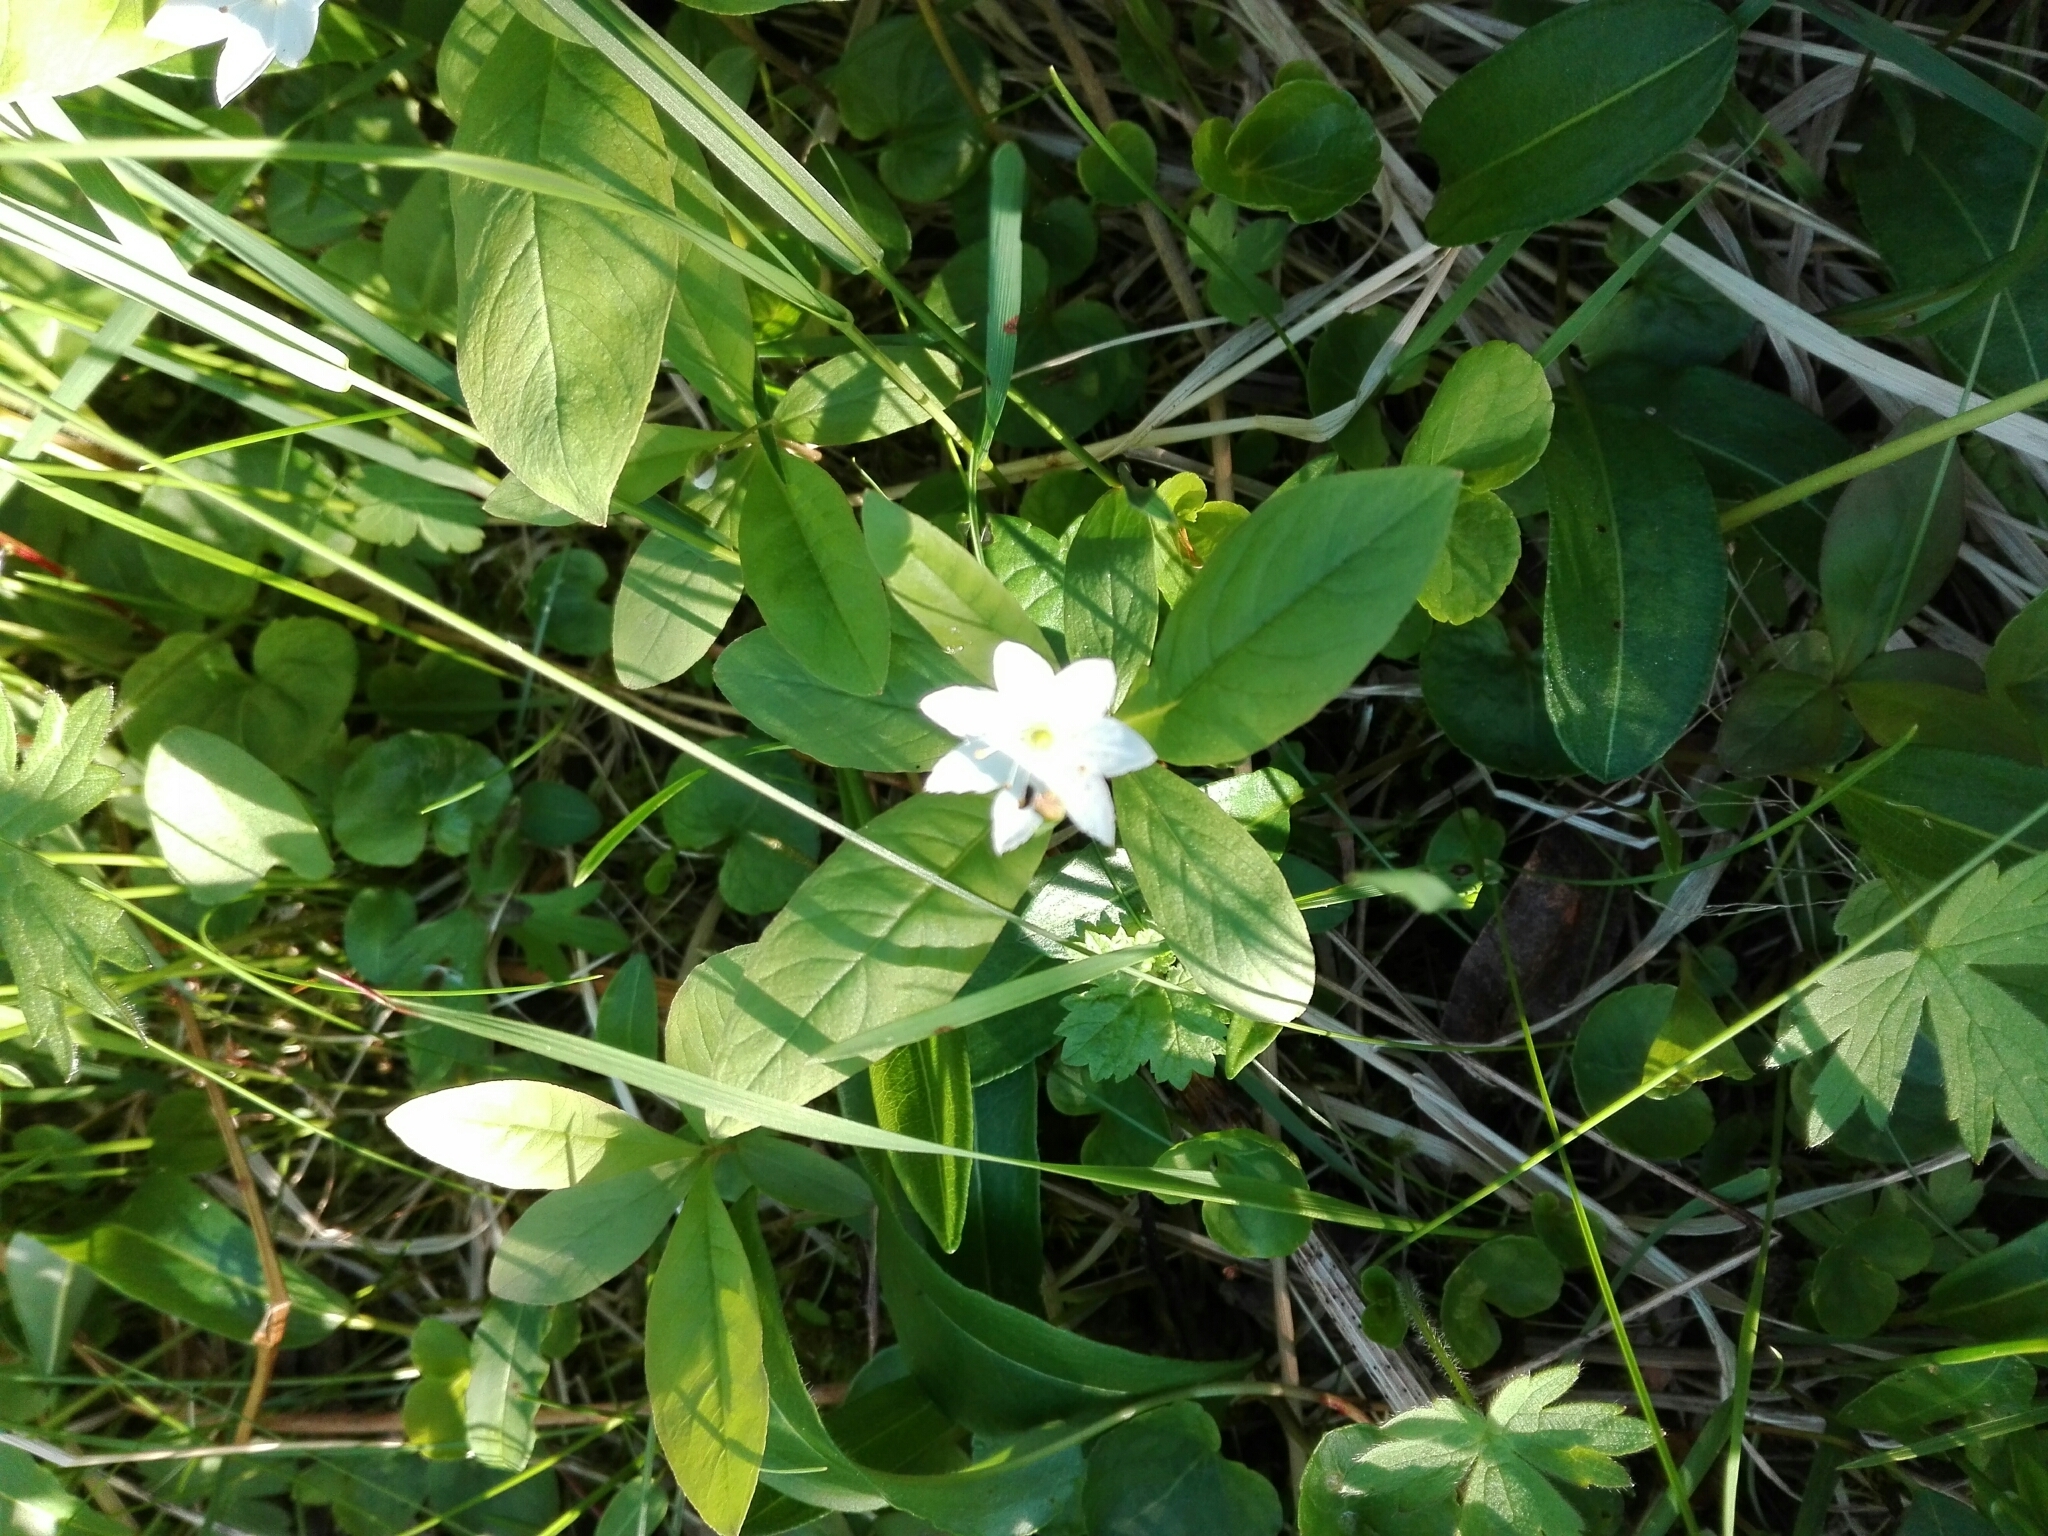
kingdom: Plantae
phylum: Tracheophyta
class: Magnoliopsida
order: Ericales
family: Primulaceae
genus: Lysimachia
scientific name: Lysimachia europaea
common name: Arctic starflower
